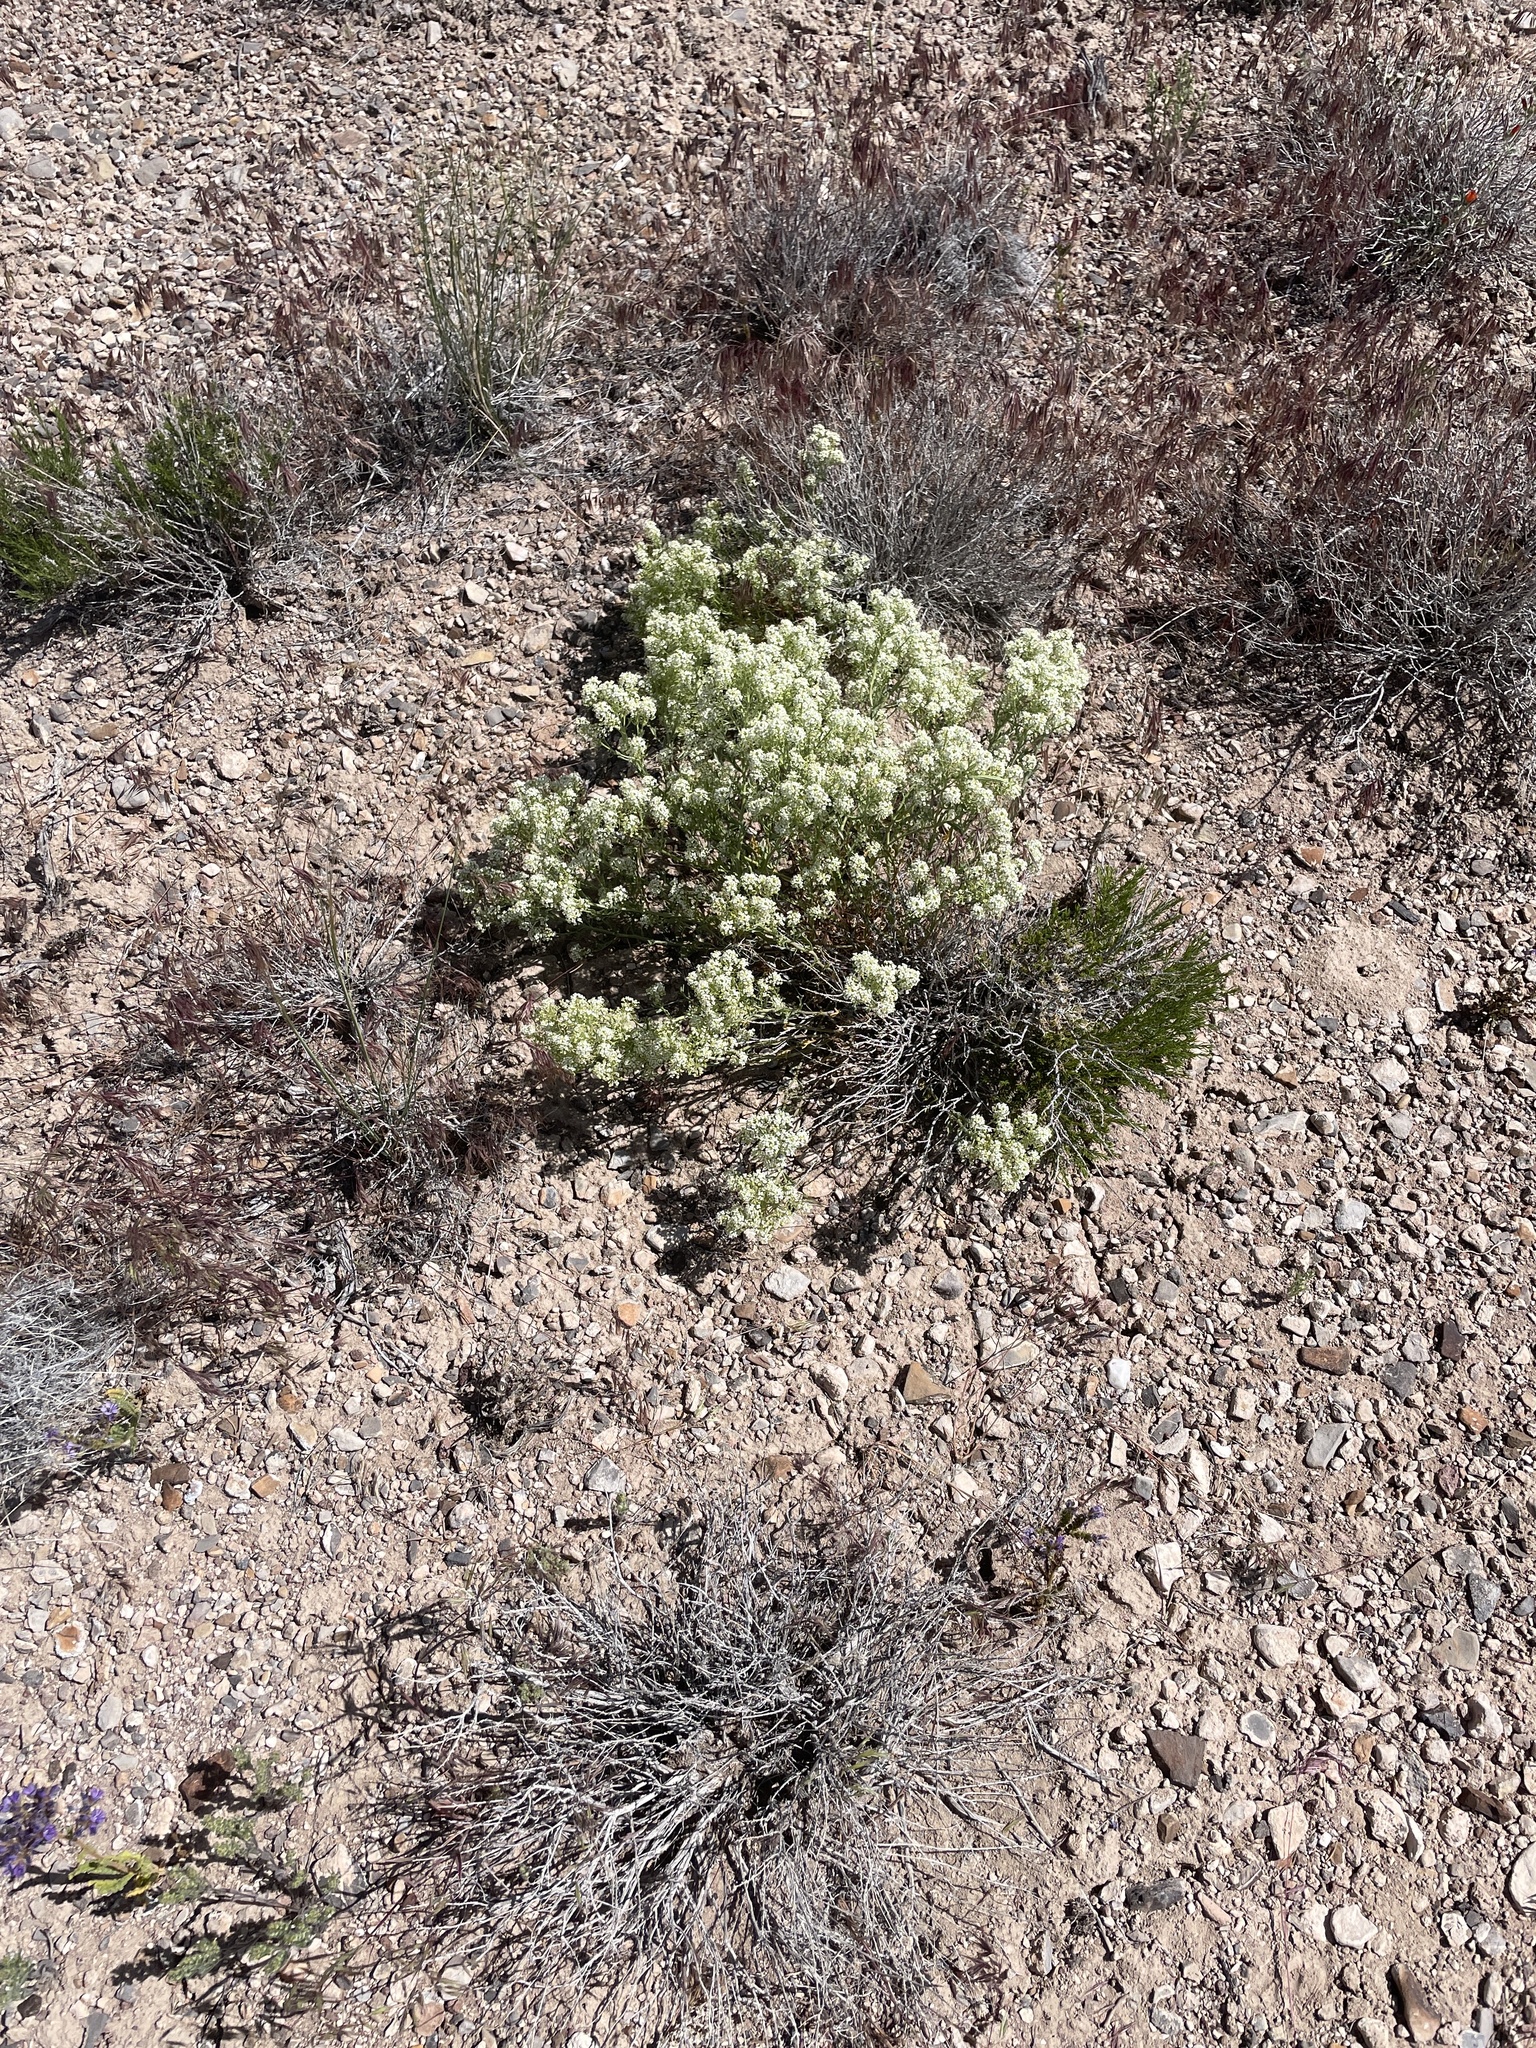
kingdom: Plantae
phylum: Tracheophyta
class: Magnoliopsida
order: Brassicales
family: Brassicaceae
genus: Lepidium
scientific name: Lepidium montanum
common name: Mountain pepperplant
